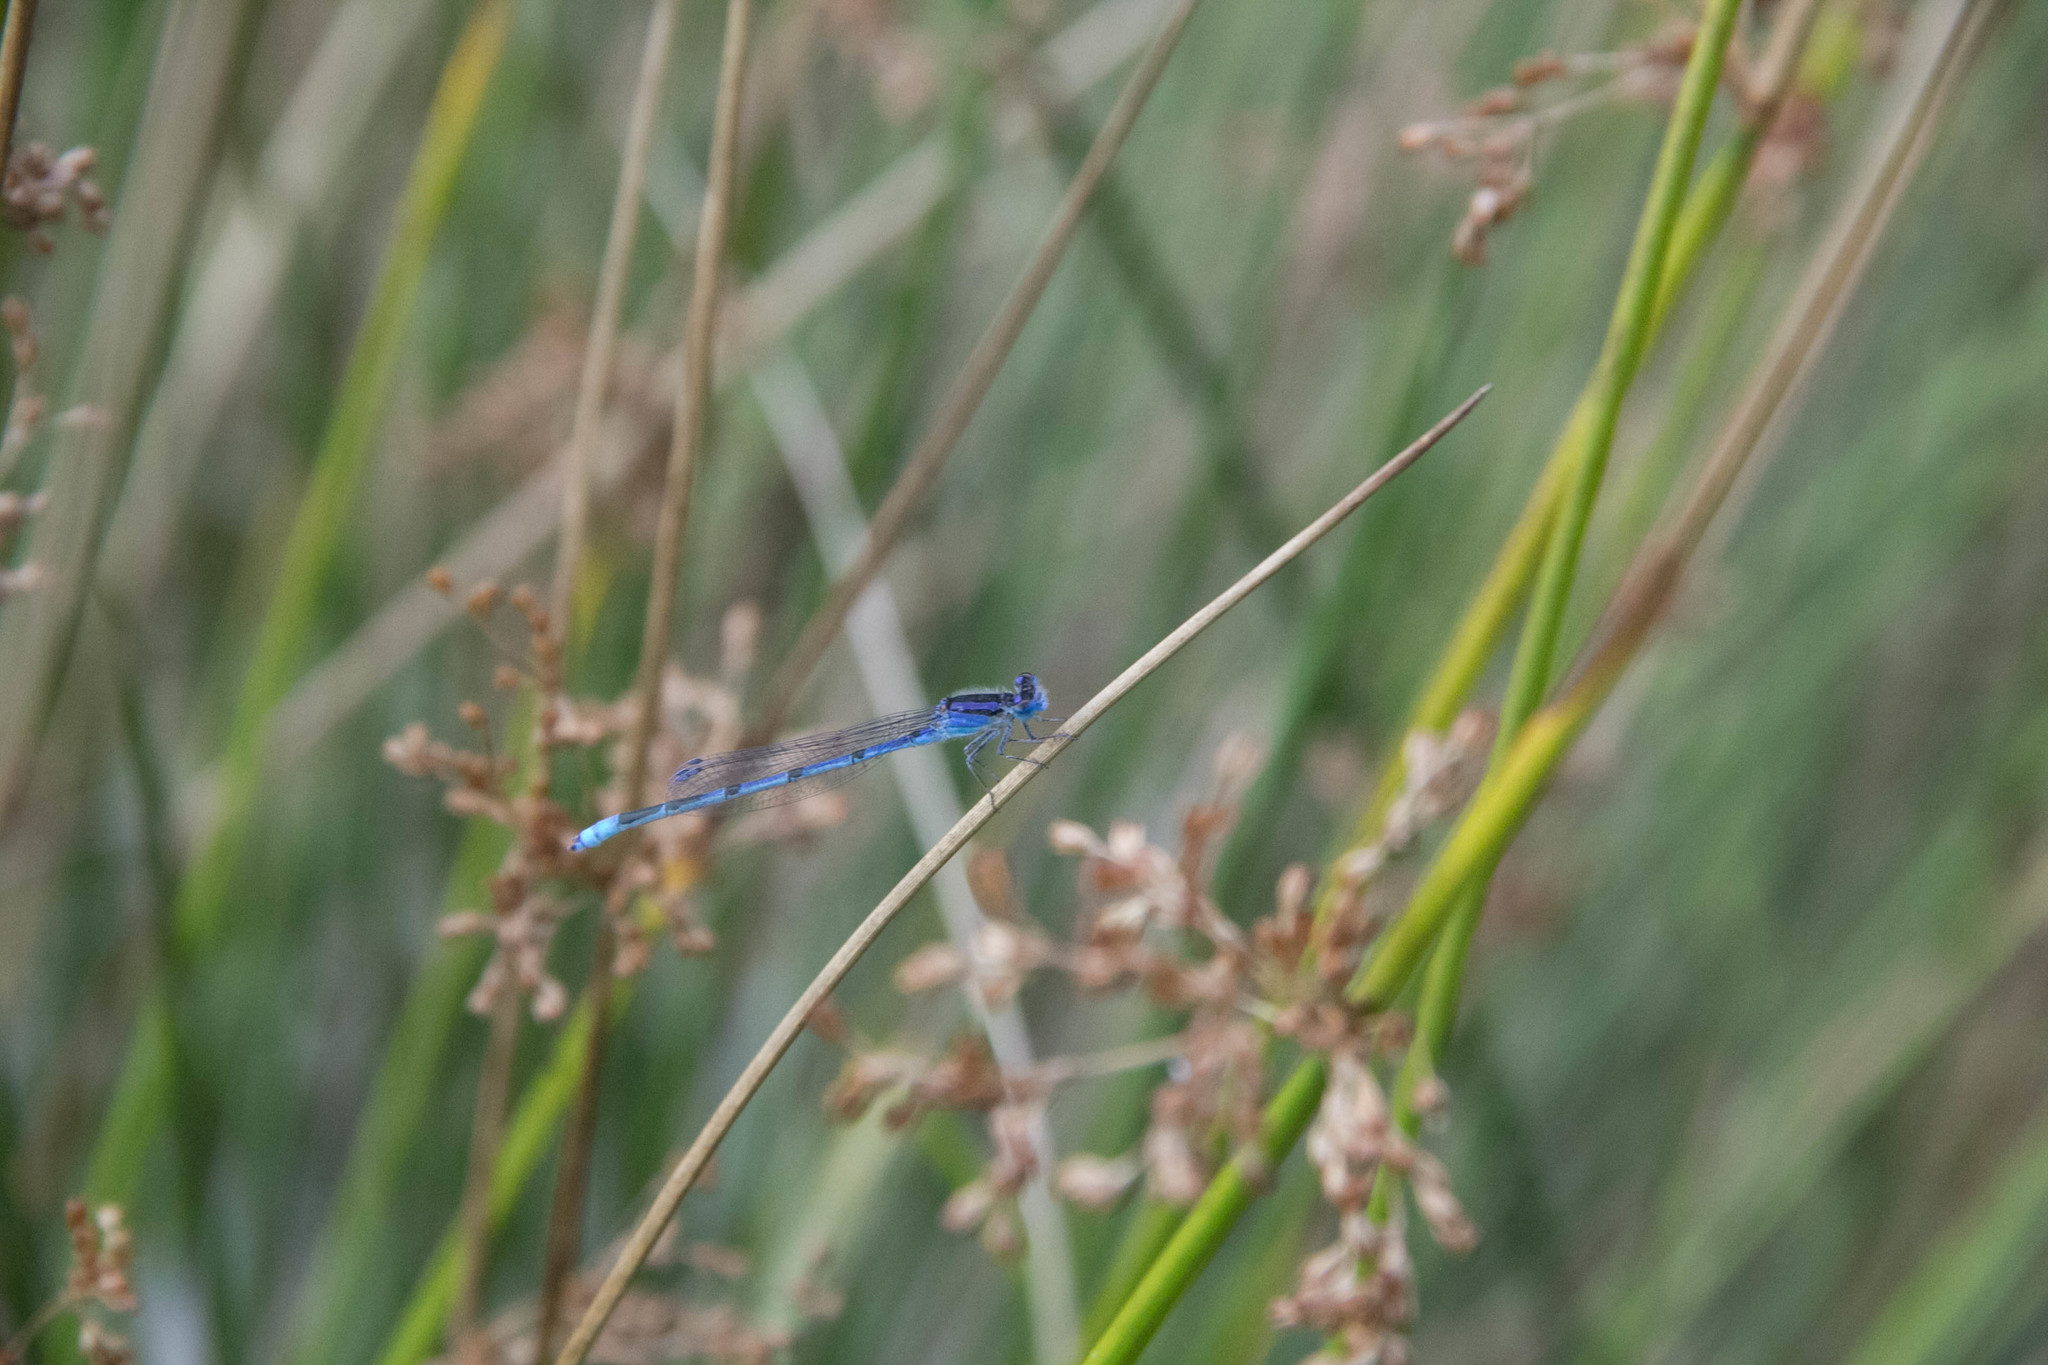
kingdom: Animalia
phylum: Arthropoda
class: Insecta
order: Odonata
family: Coenagrionidae
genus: Enallagma
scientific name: Enallagma civile
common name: Damselfly
